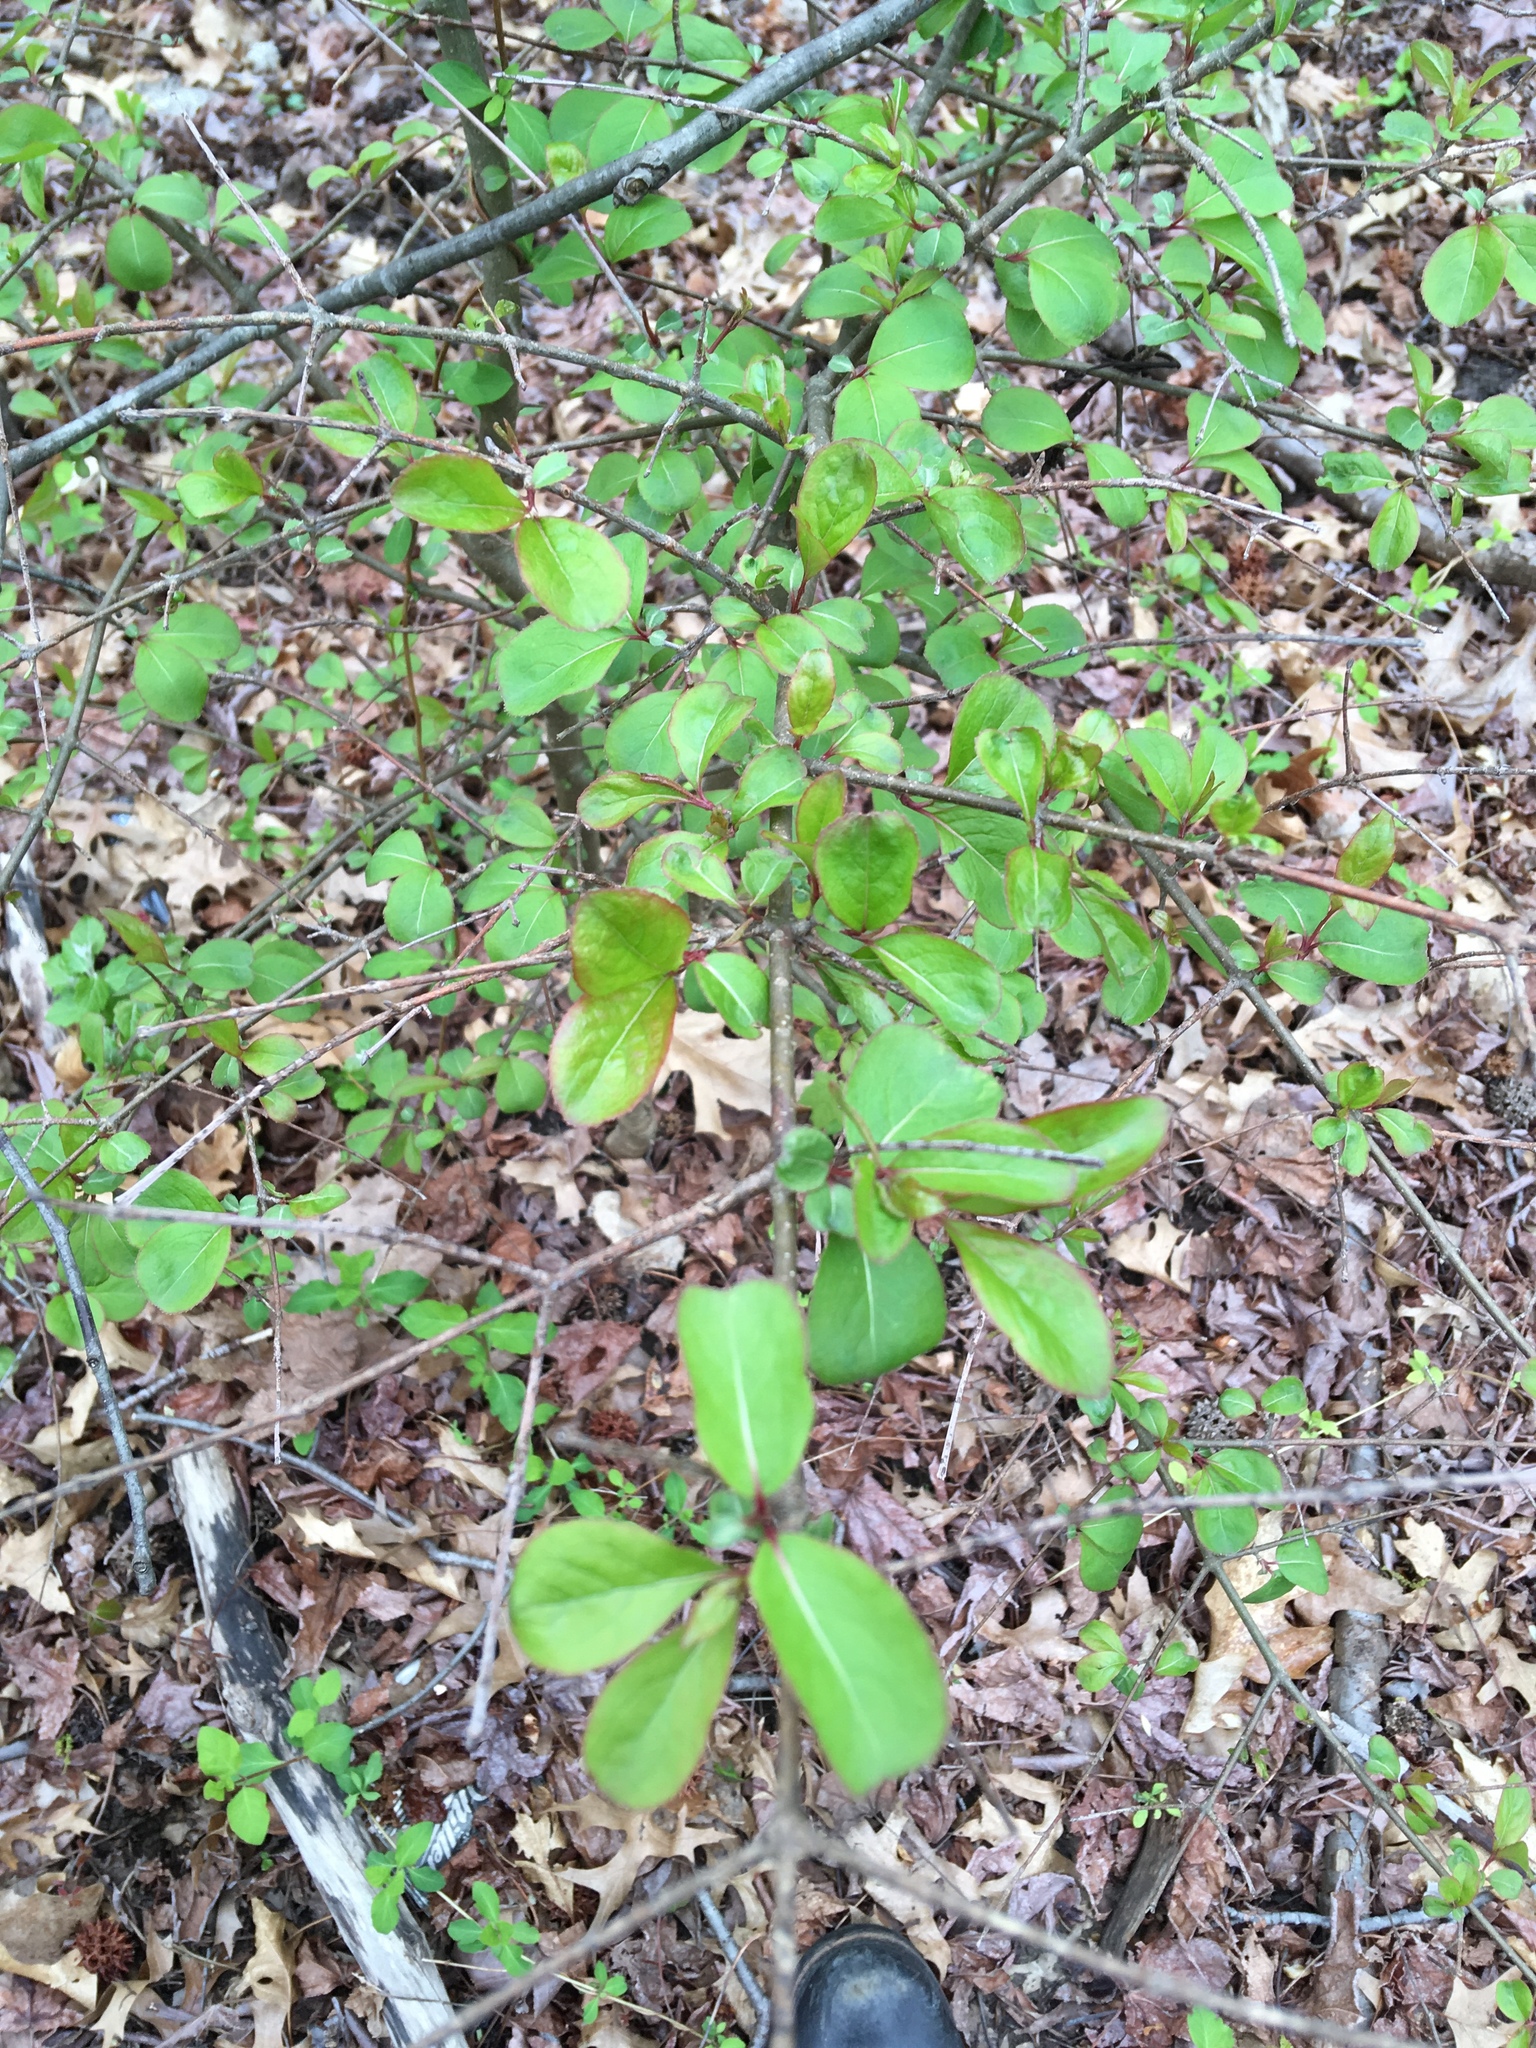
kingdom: Plantae
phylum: Tracheophyta
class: Magnoliopsida
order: Dipsacales
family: Viburnaceae
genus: Viburnum
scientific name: Viburnum prunifolium
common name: Black haw
